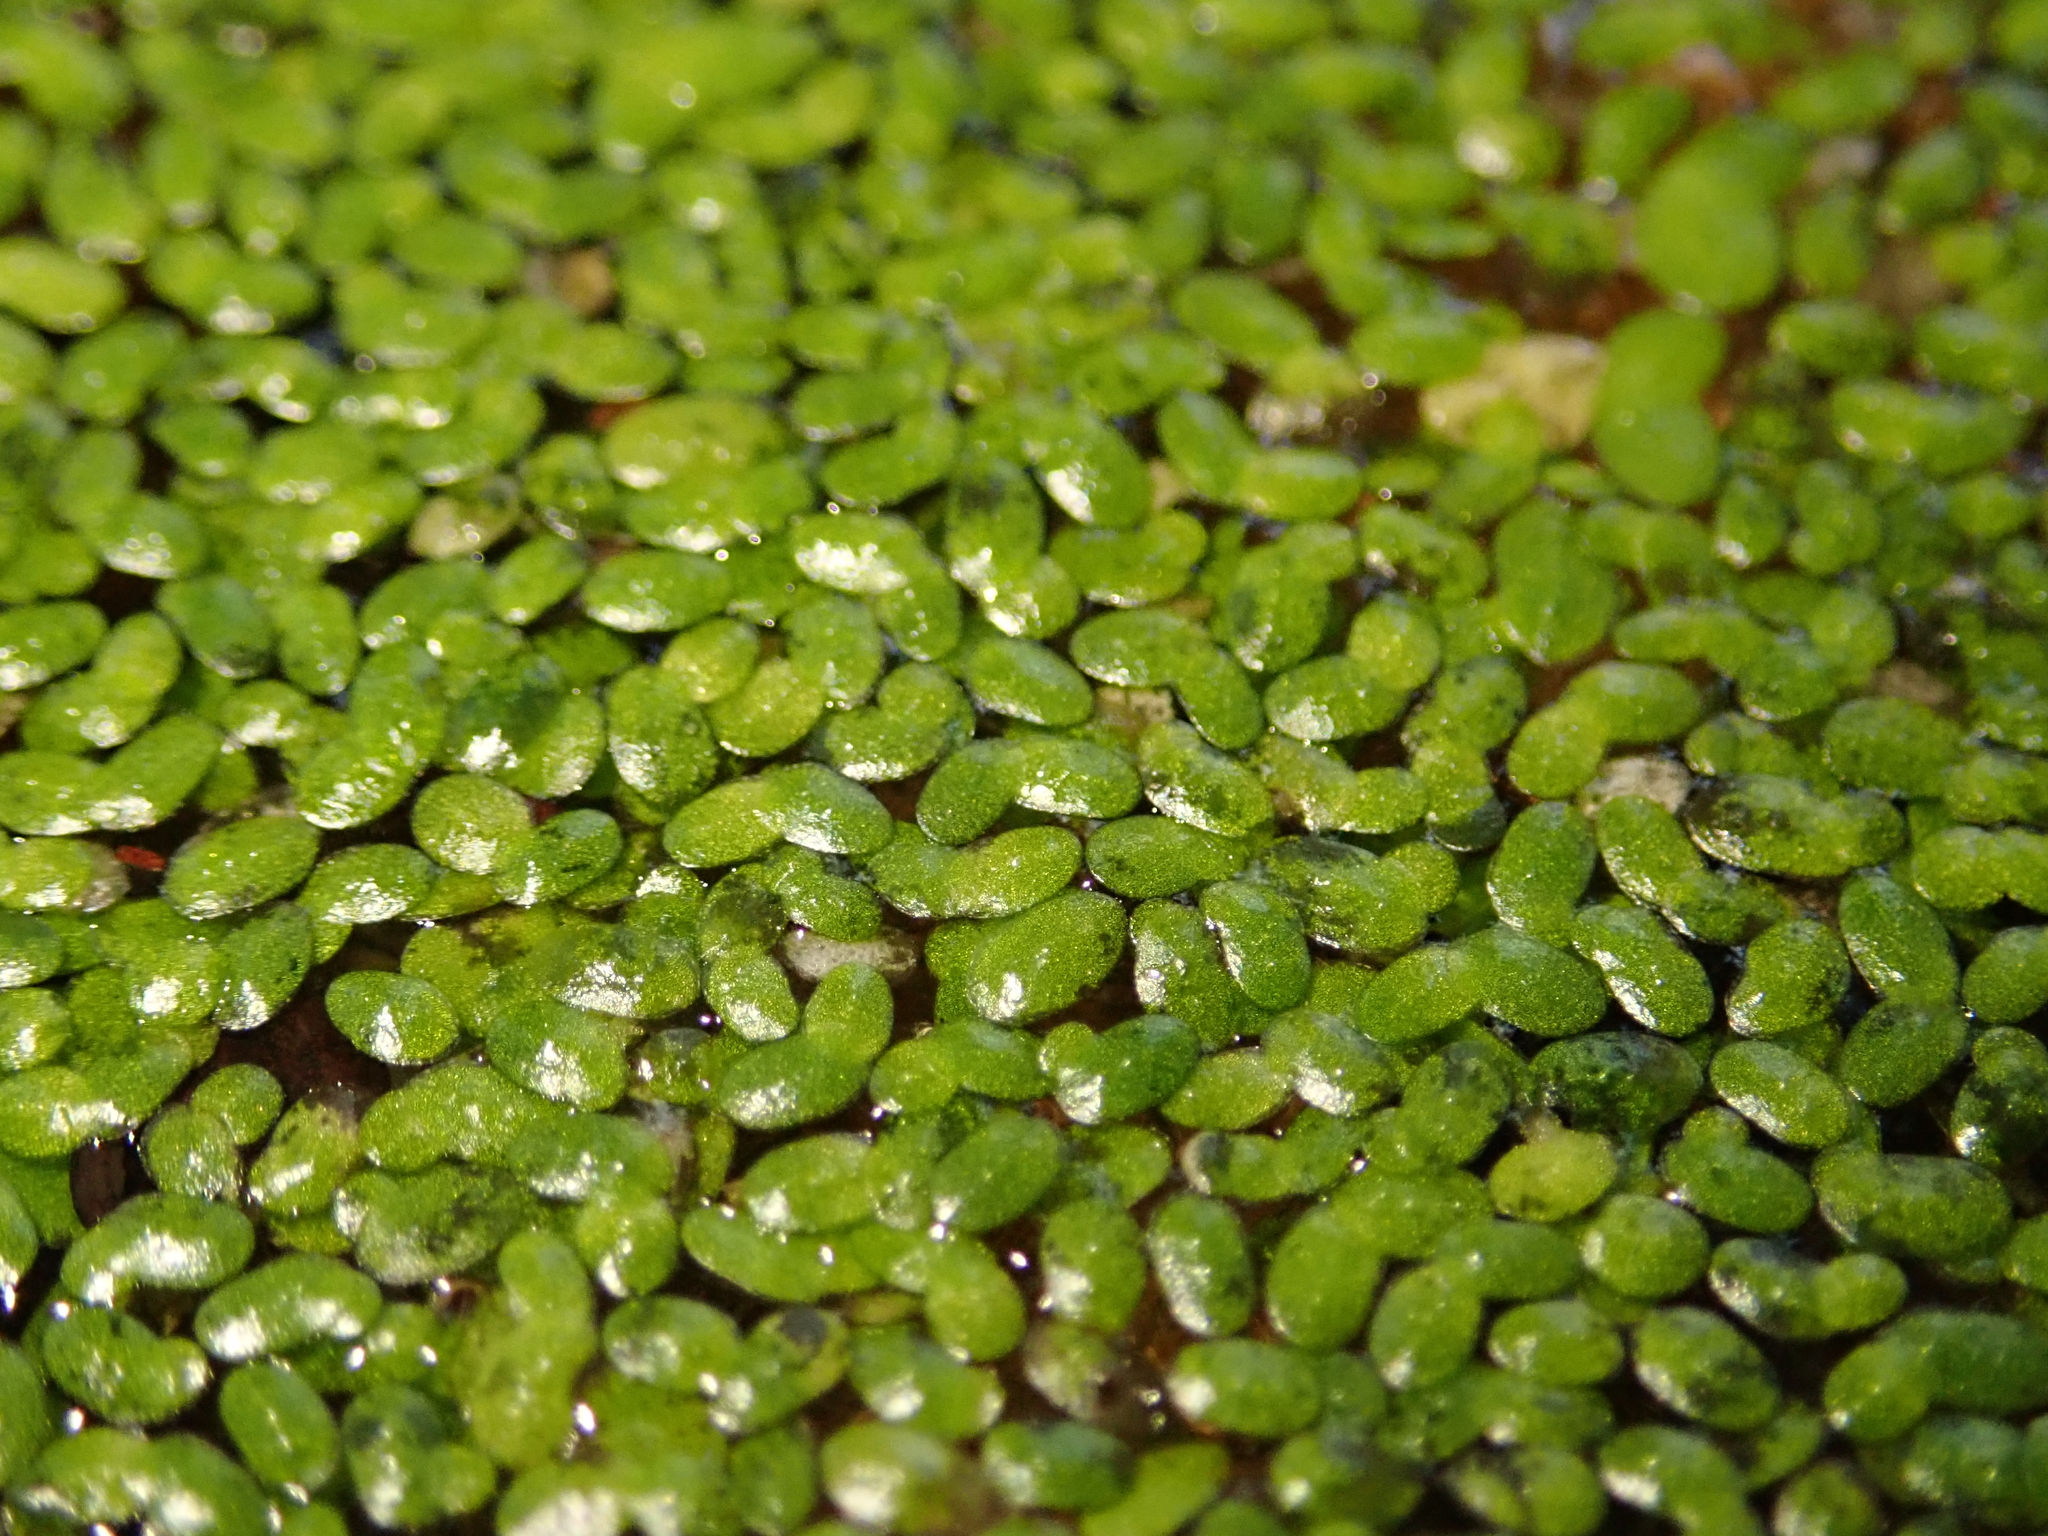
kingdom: Plantae
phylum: Tracheophyta
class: Liliopsida
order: Alismatales
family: Araceae
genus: Lemna
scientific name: Lemna minor
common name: Common duckweed
